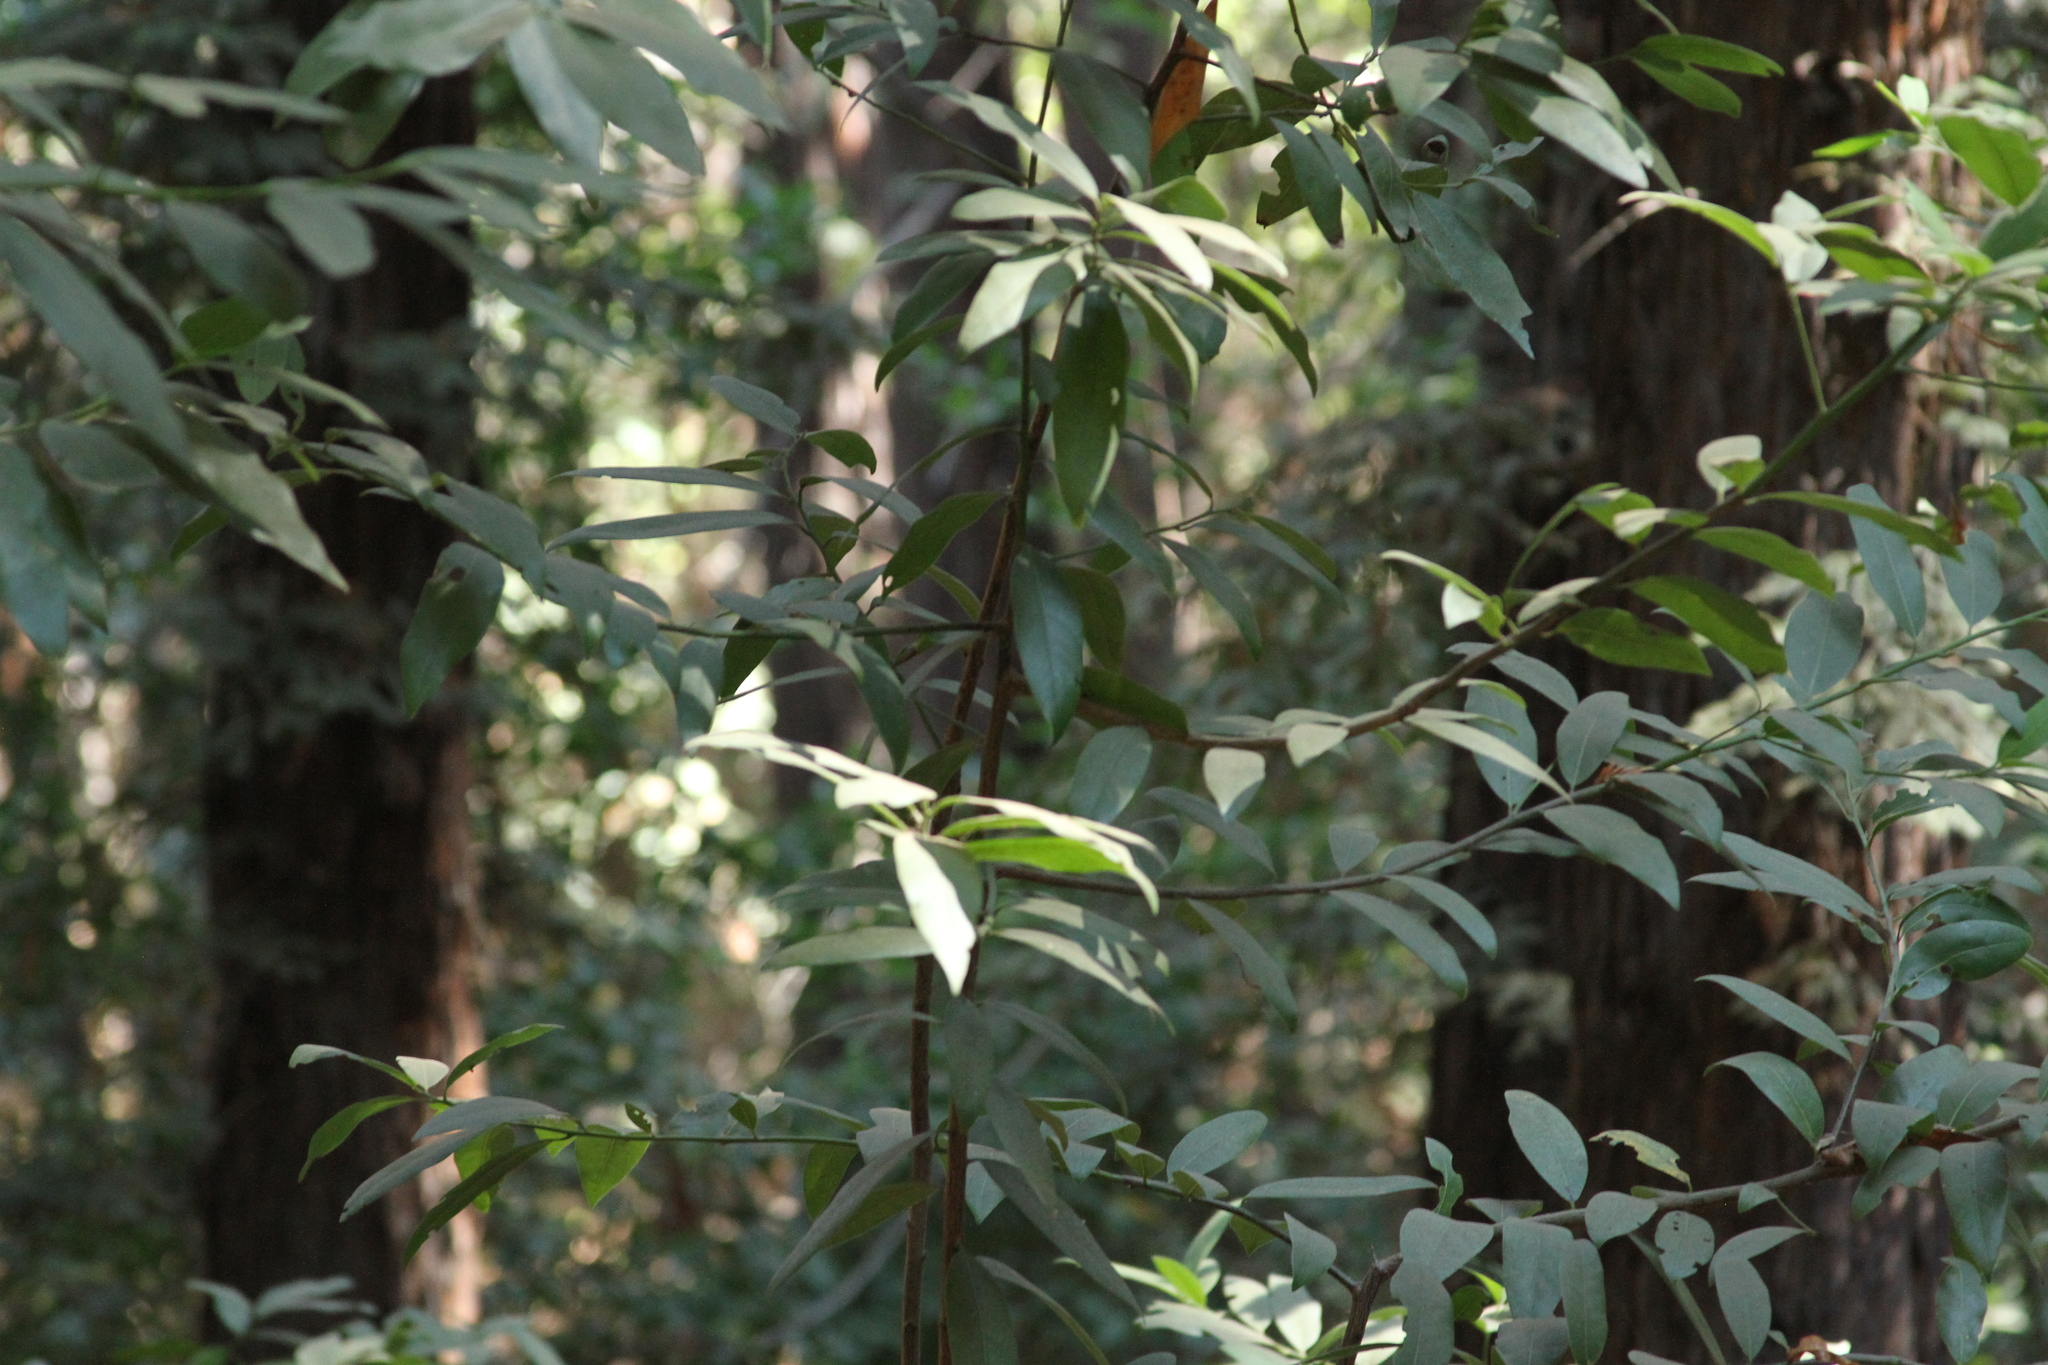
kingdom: Plantae
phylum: Tracheophyta
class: Magnoliopsida
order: Laurales
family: Lauraceae
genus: Umbellularia
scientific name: Umbellularia californica
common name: California bay
